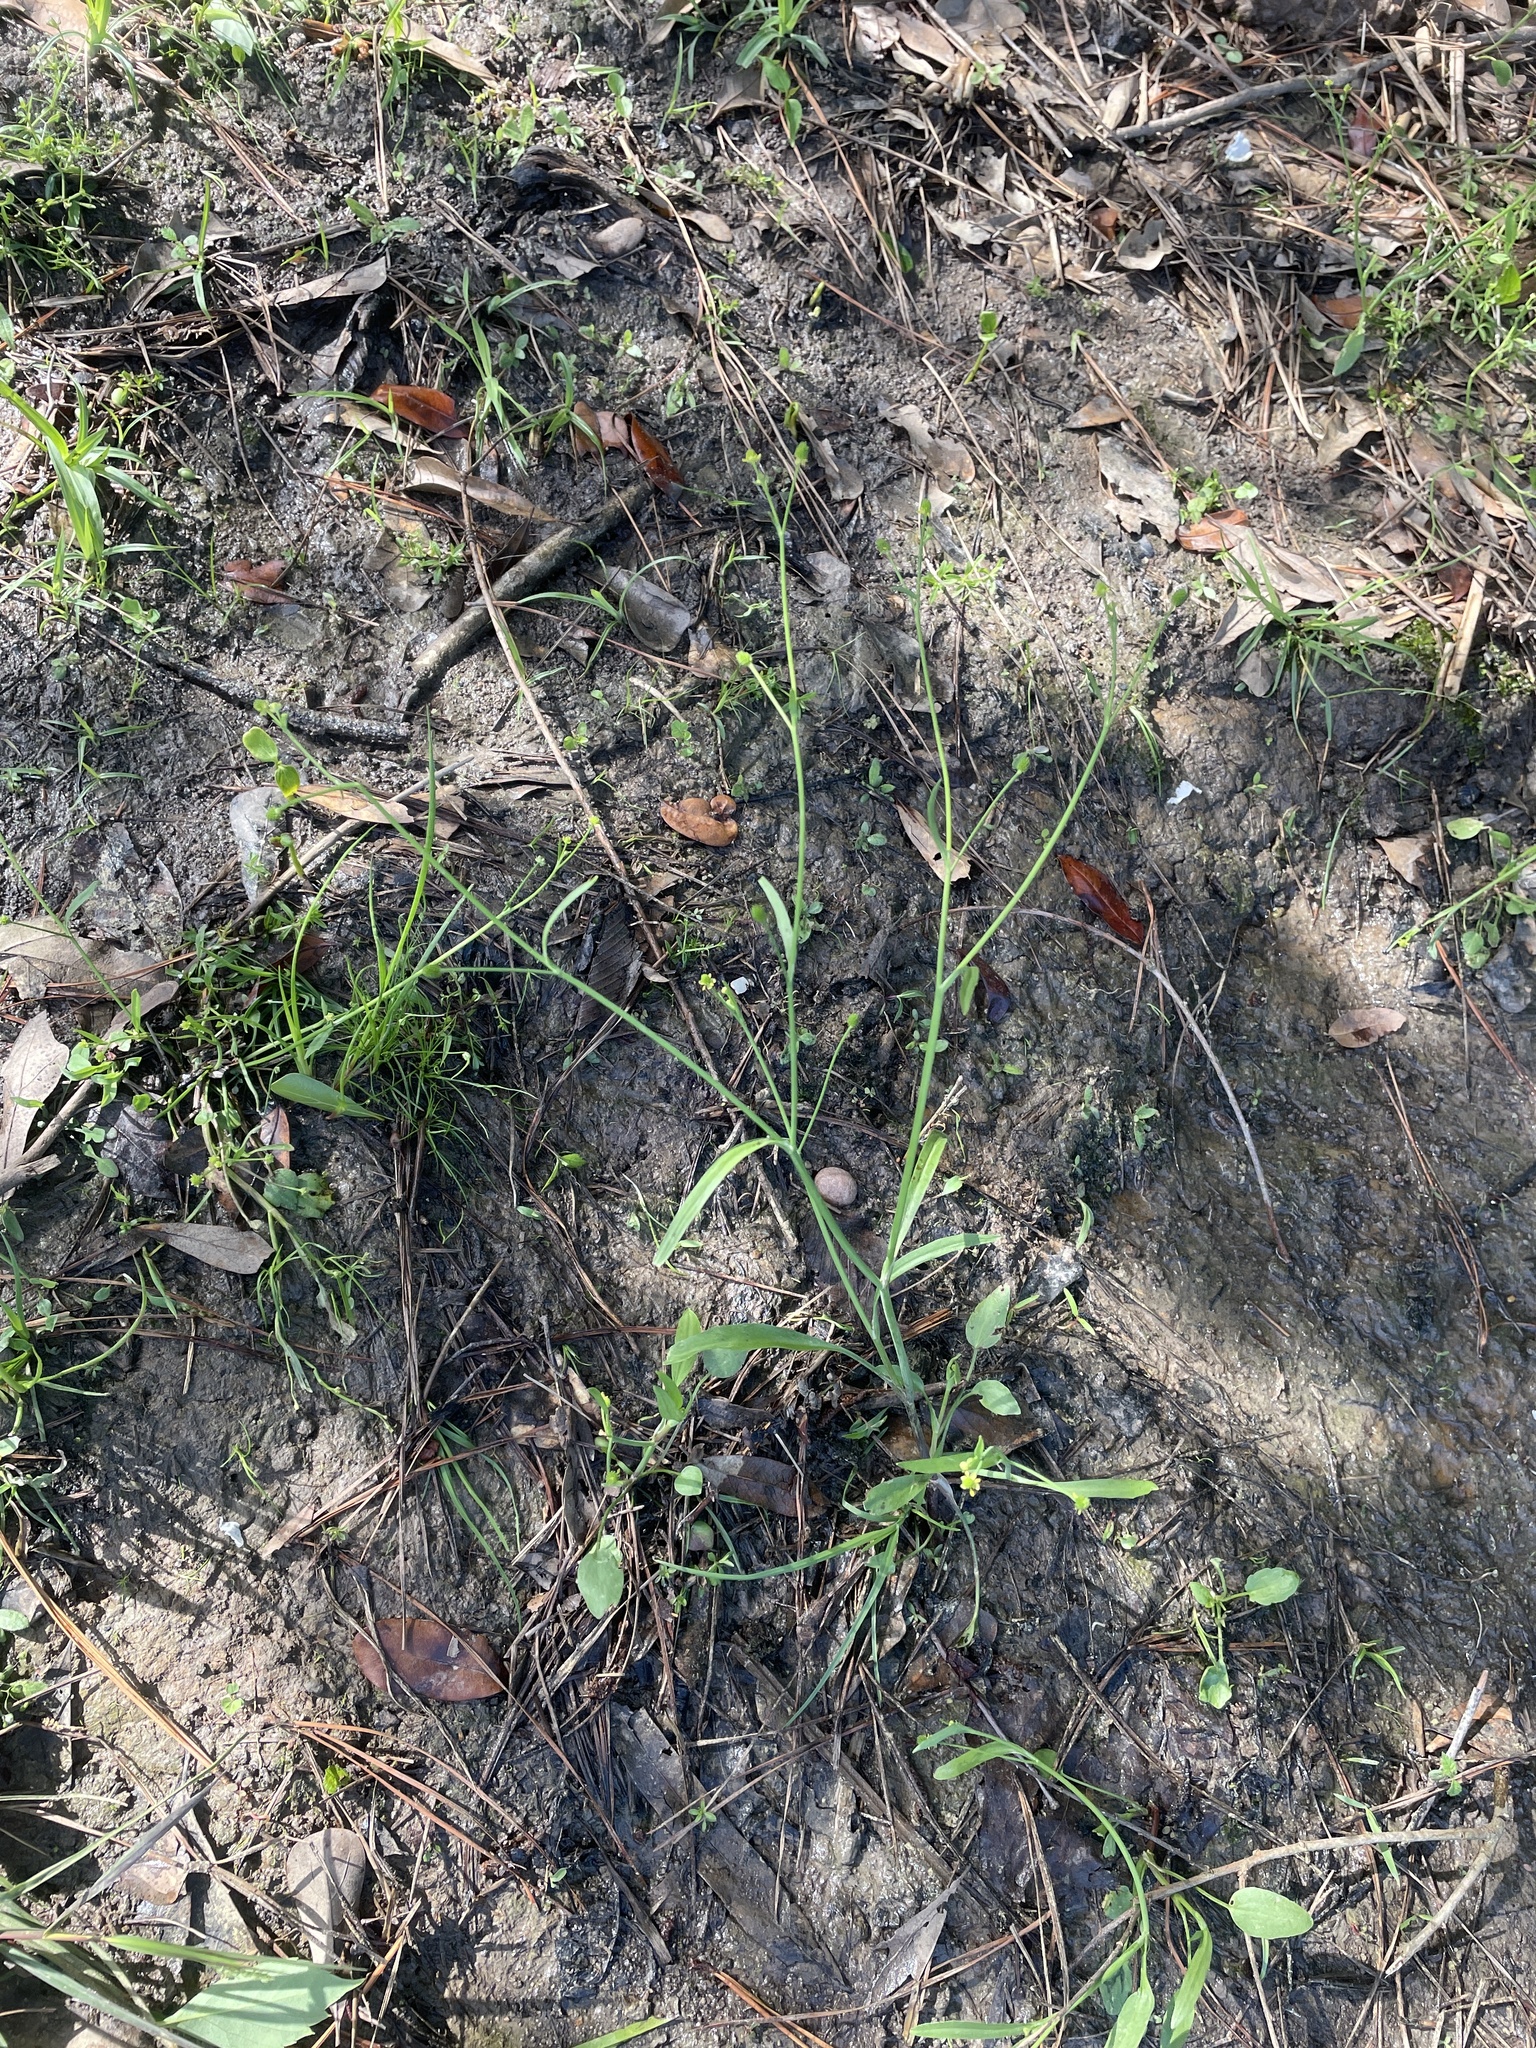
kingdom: Plantae
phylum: Tracheophyta
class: Magnoliopsida
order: Ranunculales
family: Ranunculaceae
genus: Ranunculus
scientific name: Ranunculus pusillus
